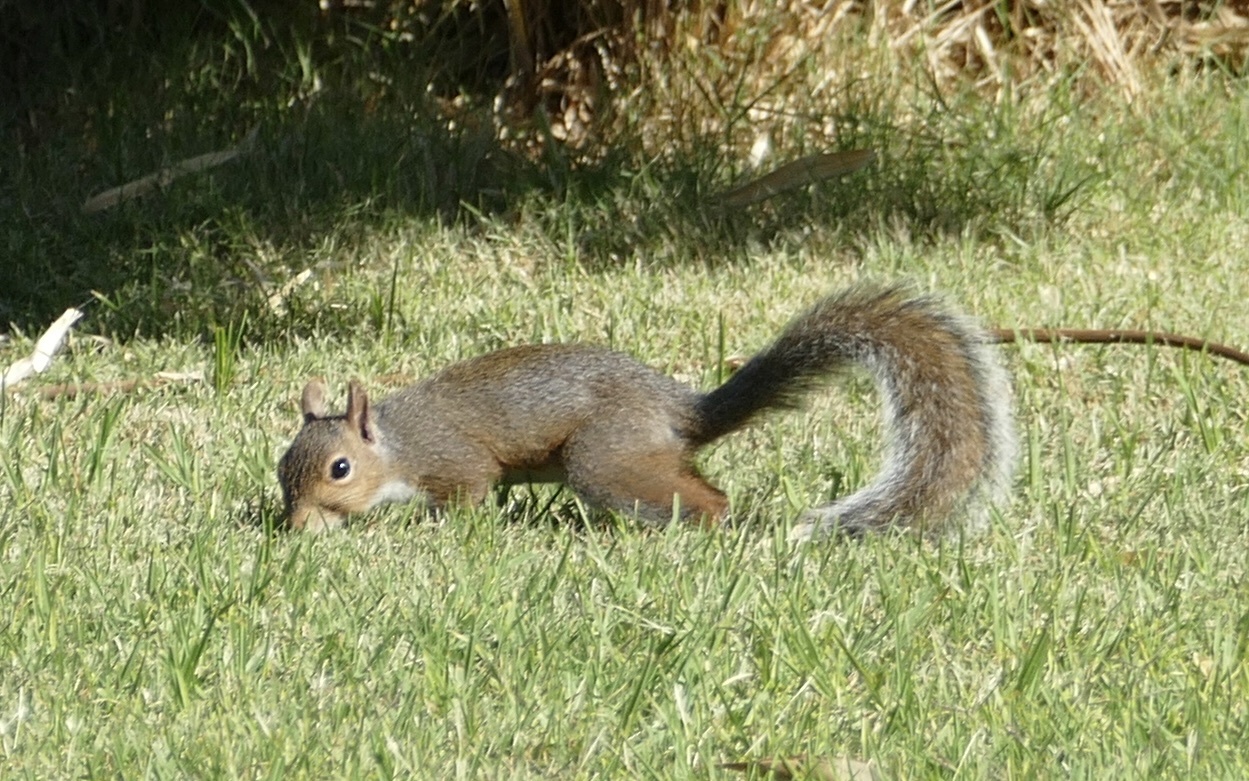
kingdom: Animalia
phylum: Chordata
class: Mammalia
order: Rodentia
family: Sciuridae
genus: Sciurus
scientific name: Sciurus carolinensis
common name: Eastern gray squirrel
